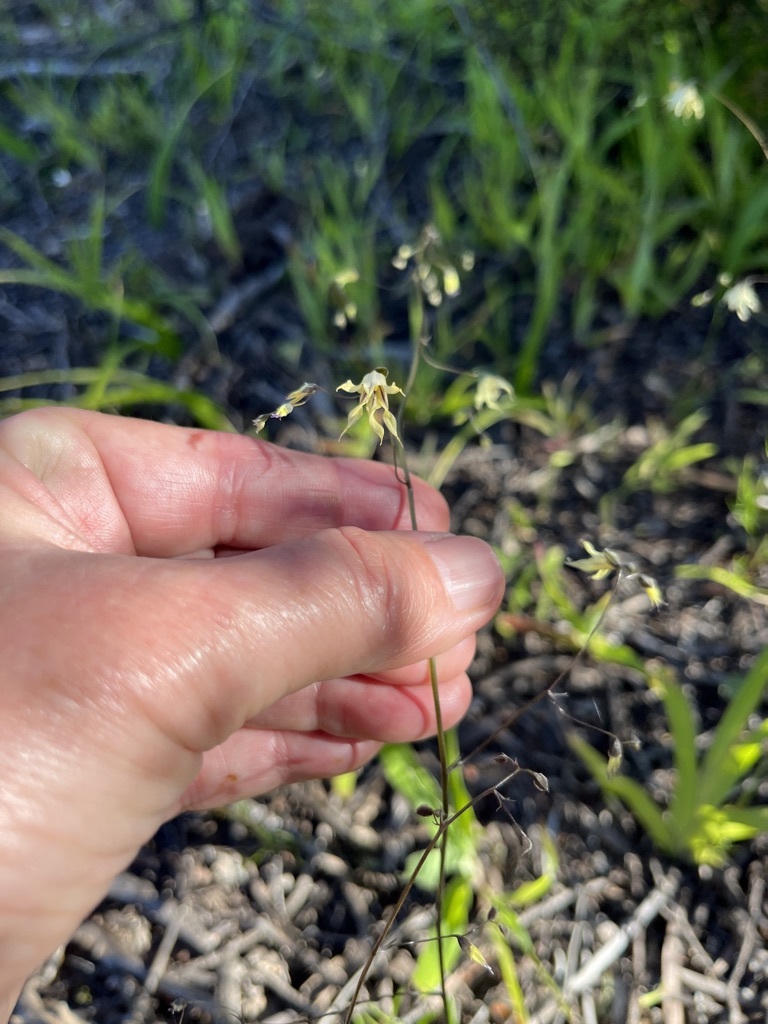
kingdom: Plantae
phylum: Tracheophyta
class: Liliopsida
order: Asparagales
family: Iridaceae
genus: Melasphaerula
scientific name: Melasphaerula graminea
